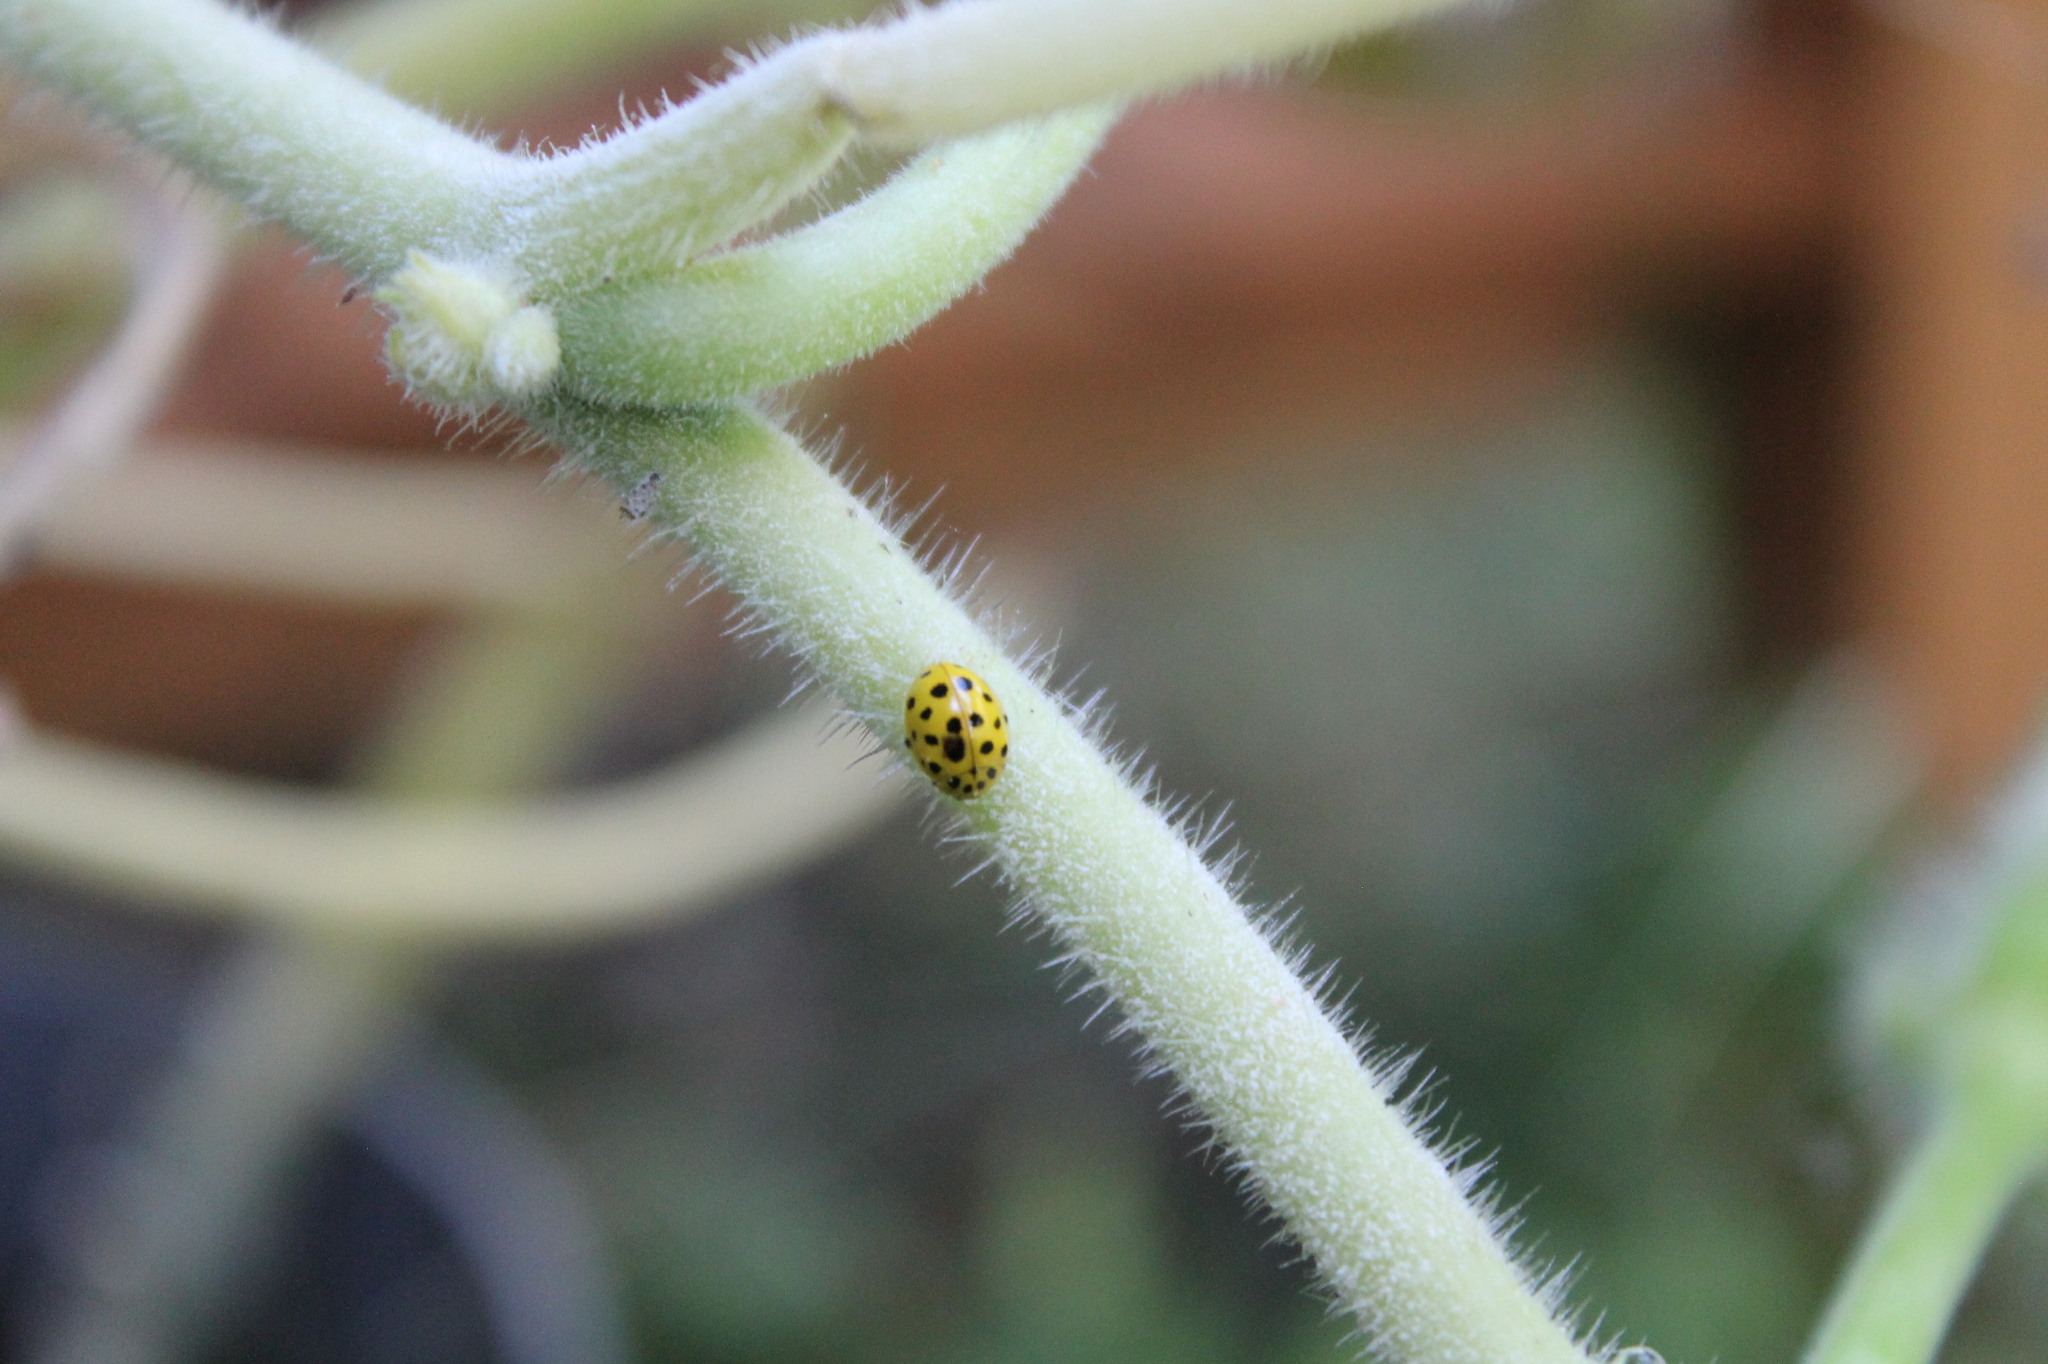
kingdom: Animalia
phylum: Arthropoda
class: Insecta
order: Coleoptera
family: Coccinellidae
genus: Psyllobora
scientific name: Psyllobora vigintiduopunctata
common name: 22-spot ladybird
